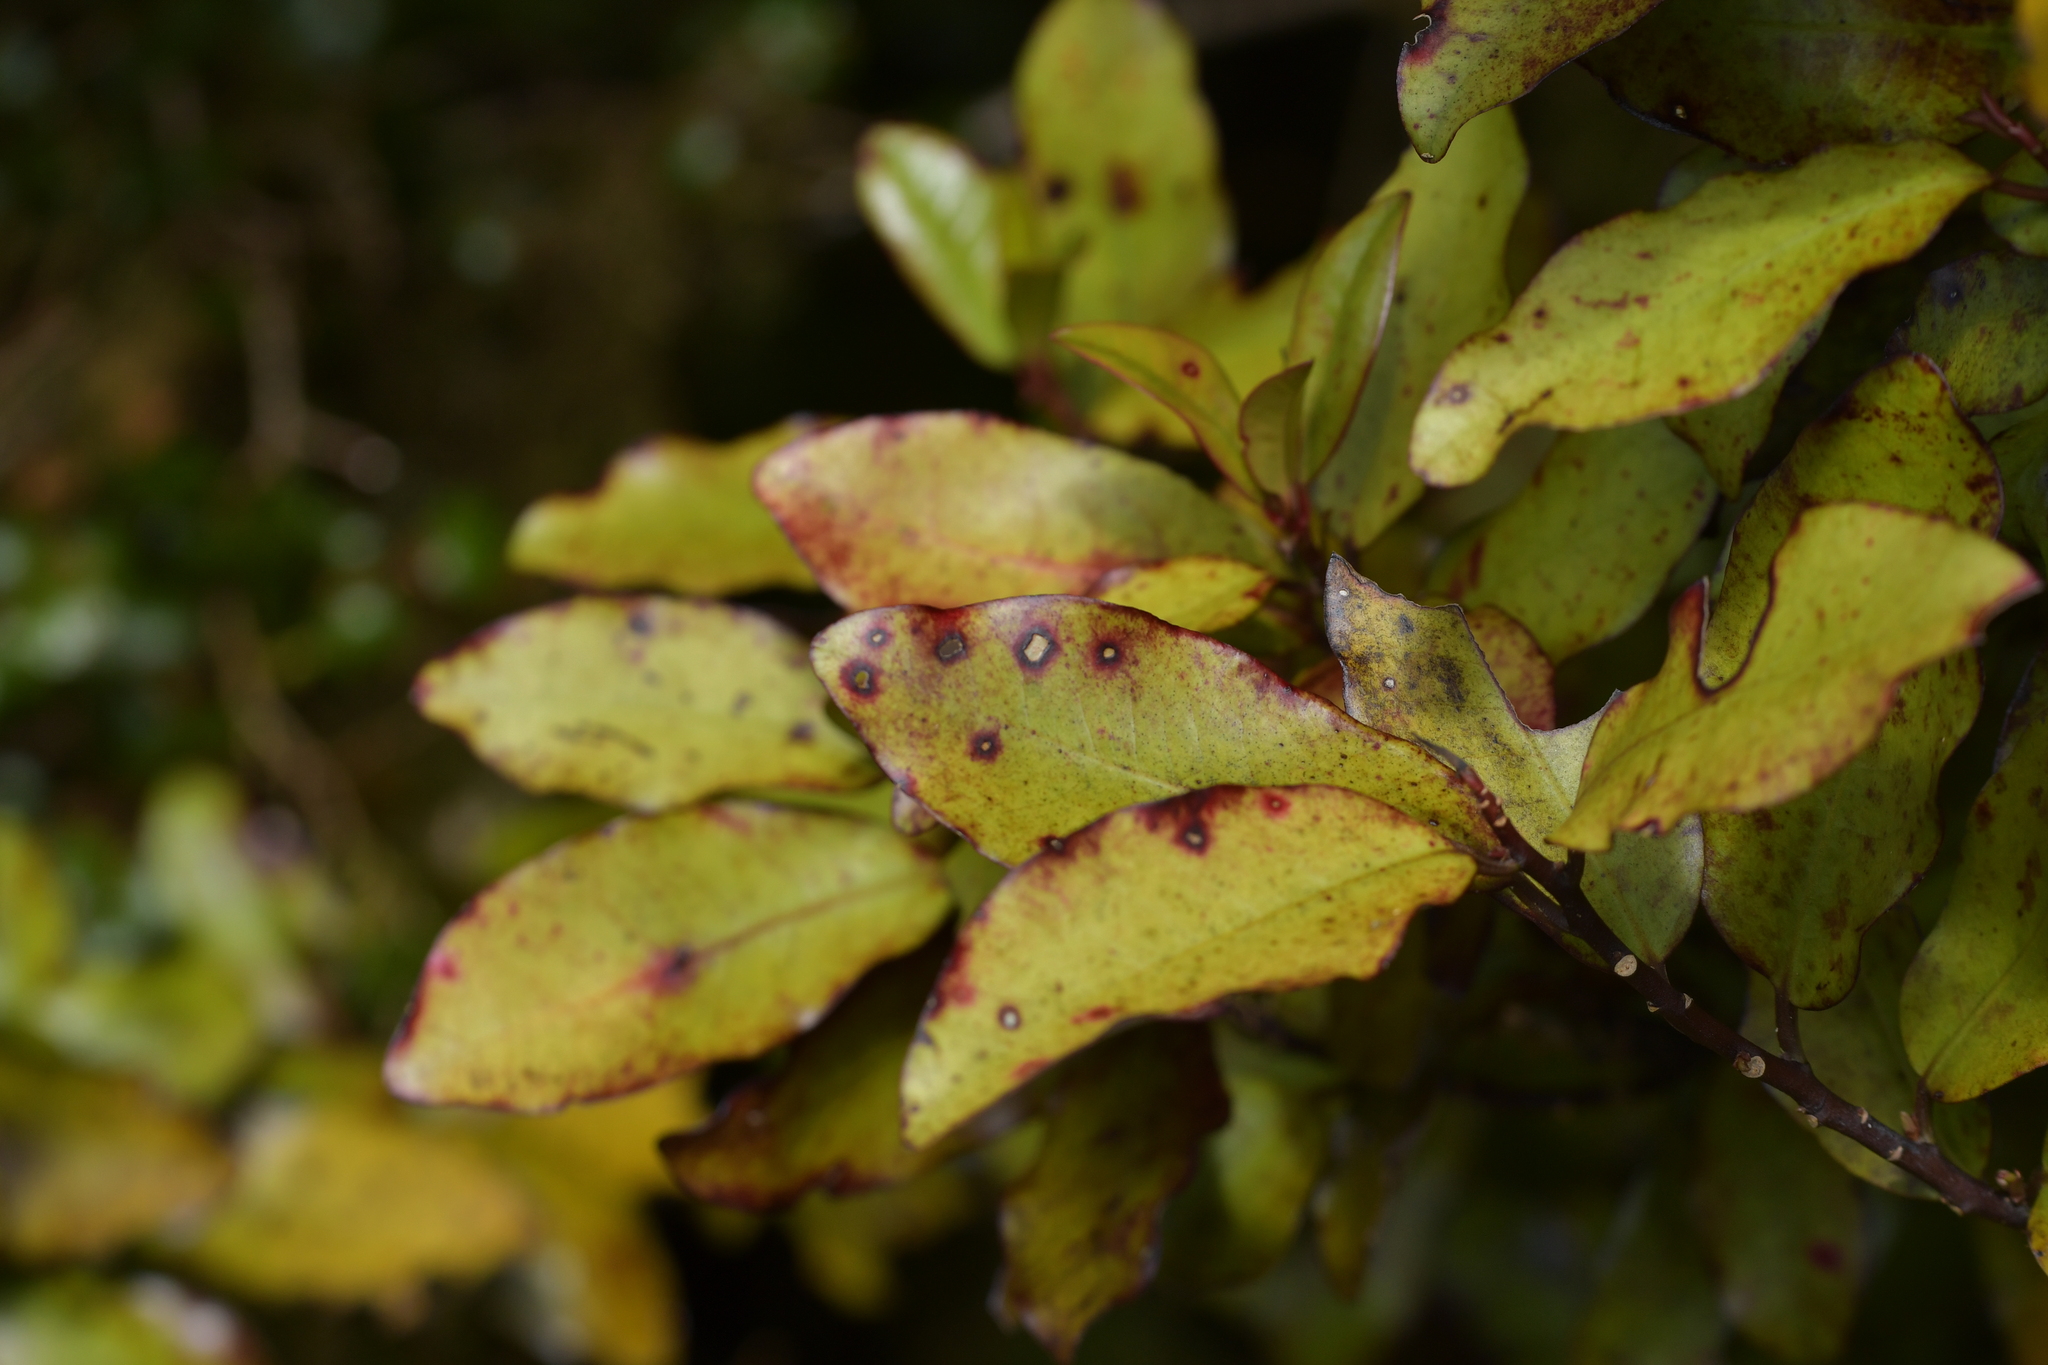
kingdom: Plantae
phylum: Tracheophyta
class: Magnoliopsida
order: Canellales
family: Winteraceae
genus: Pseudowintera
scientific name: Pseudowintera colorata
